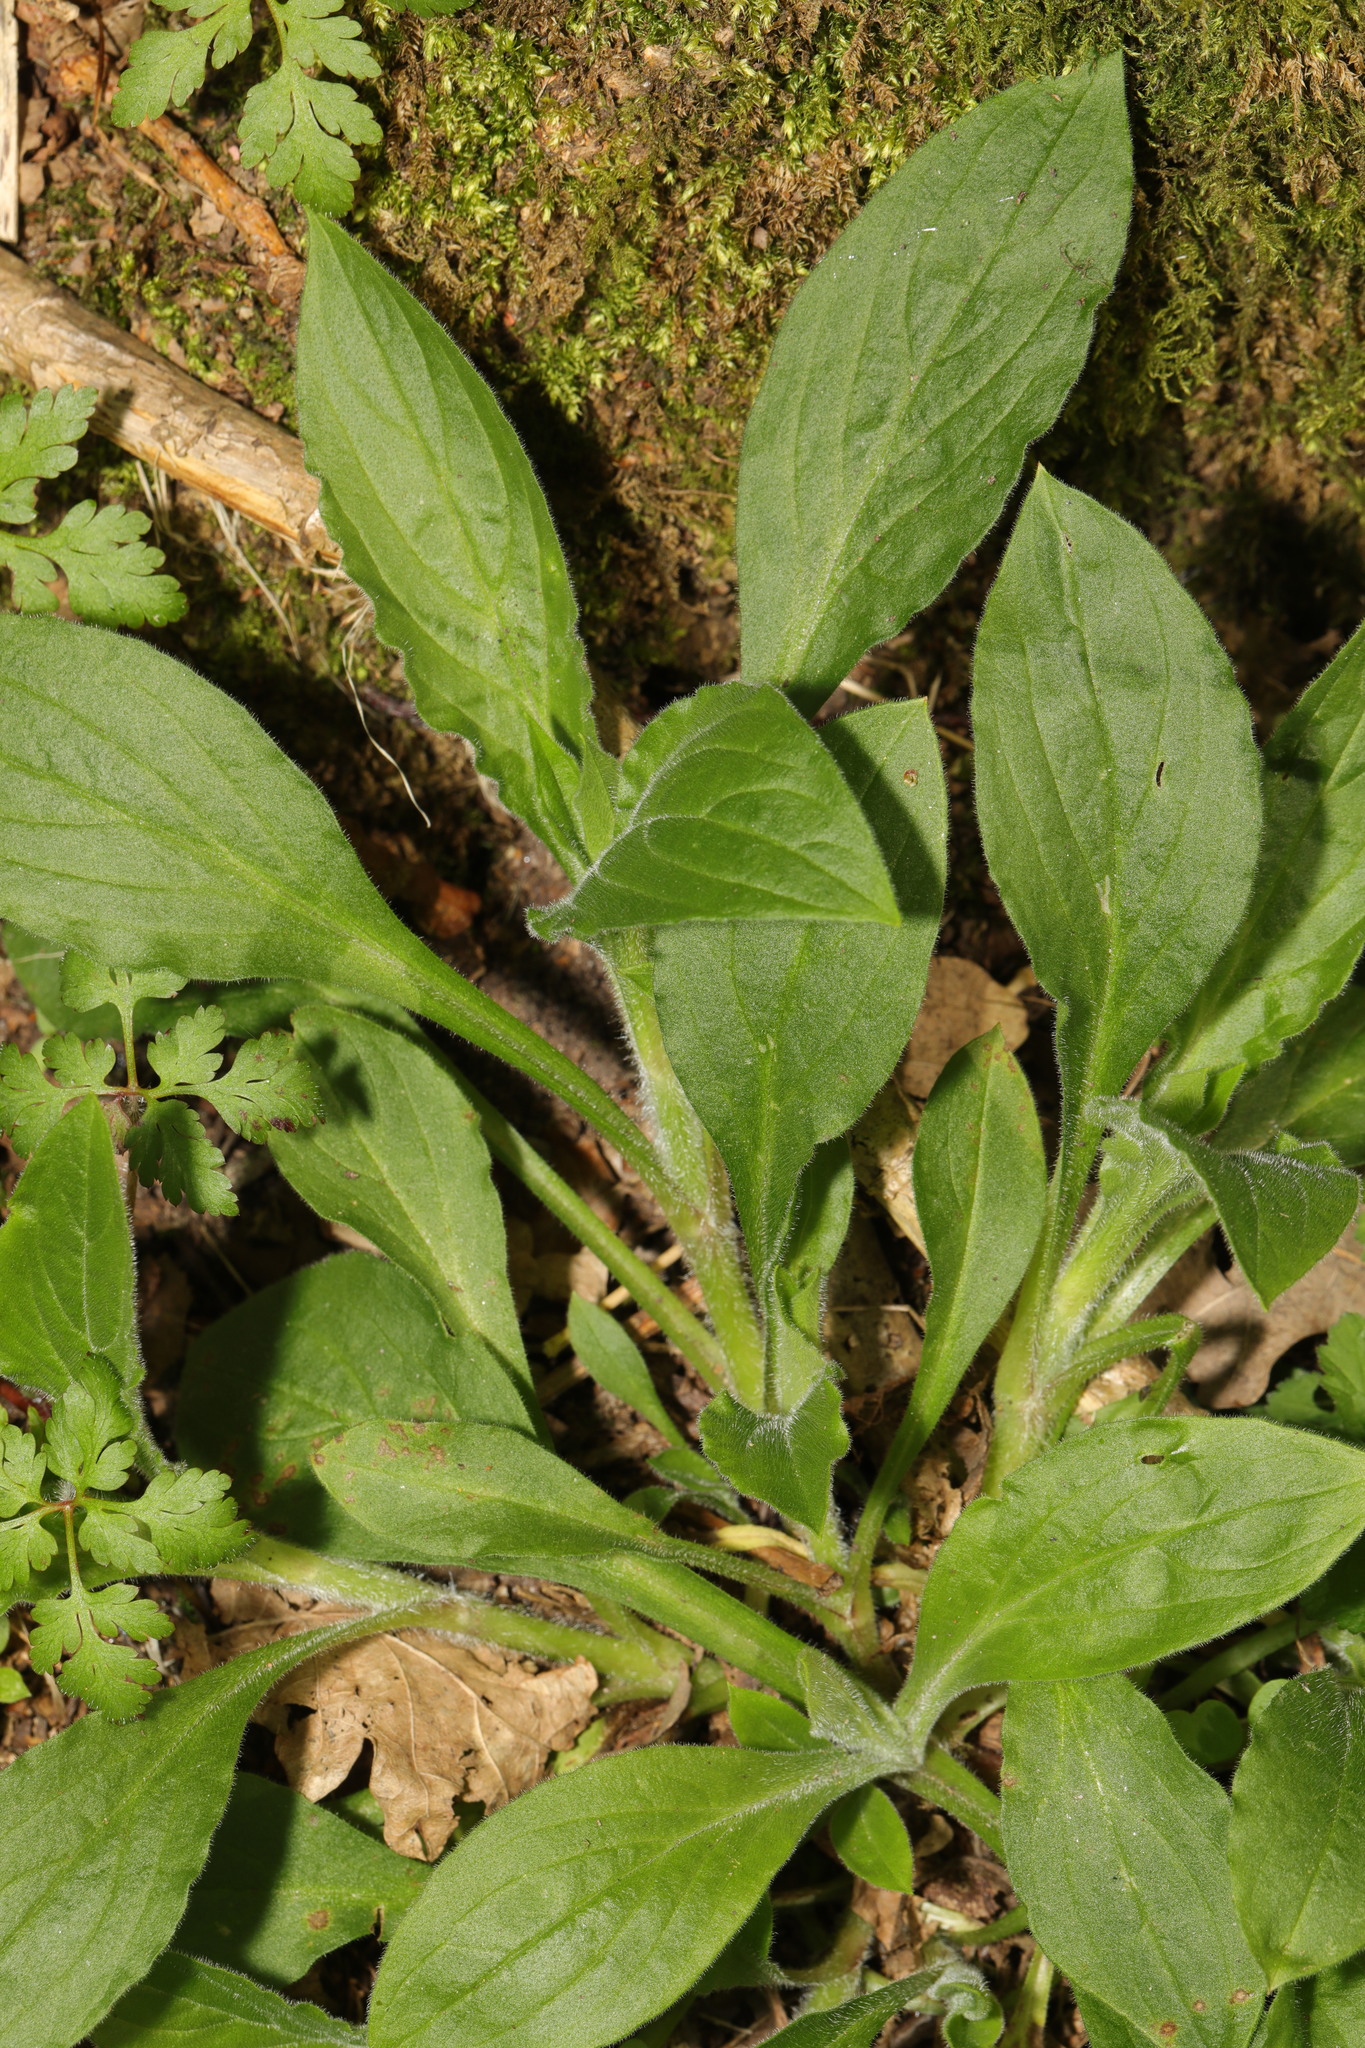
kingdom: Plantae
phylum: Tracheophyta
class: Magnoliopsida
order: Caryophyllales
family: Caryophyllaceae
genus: Silene
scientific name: Silene dioica
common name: Red campion
